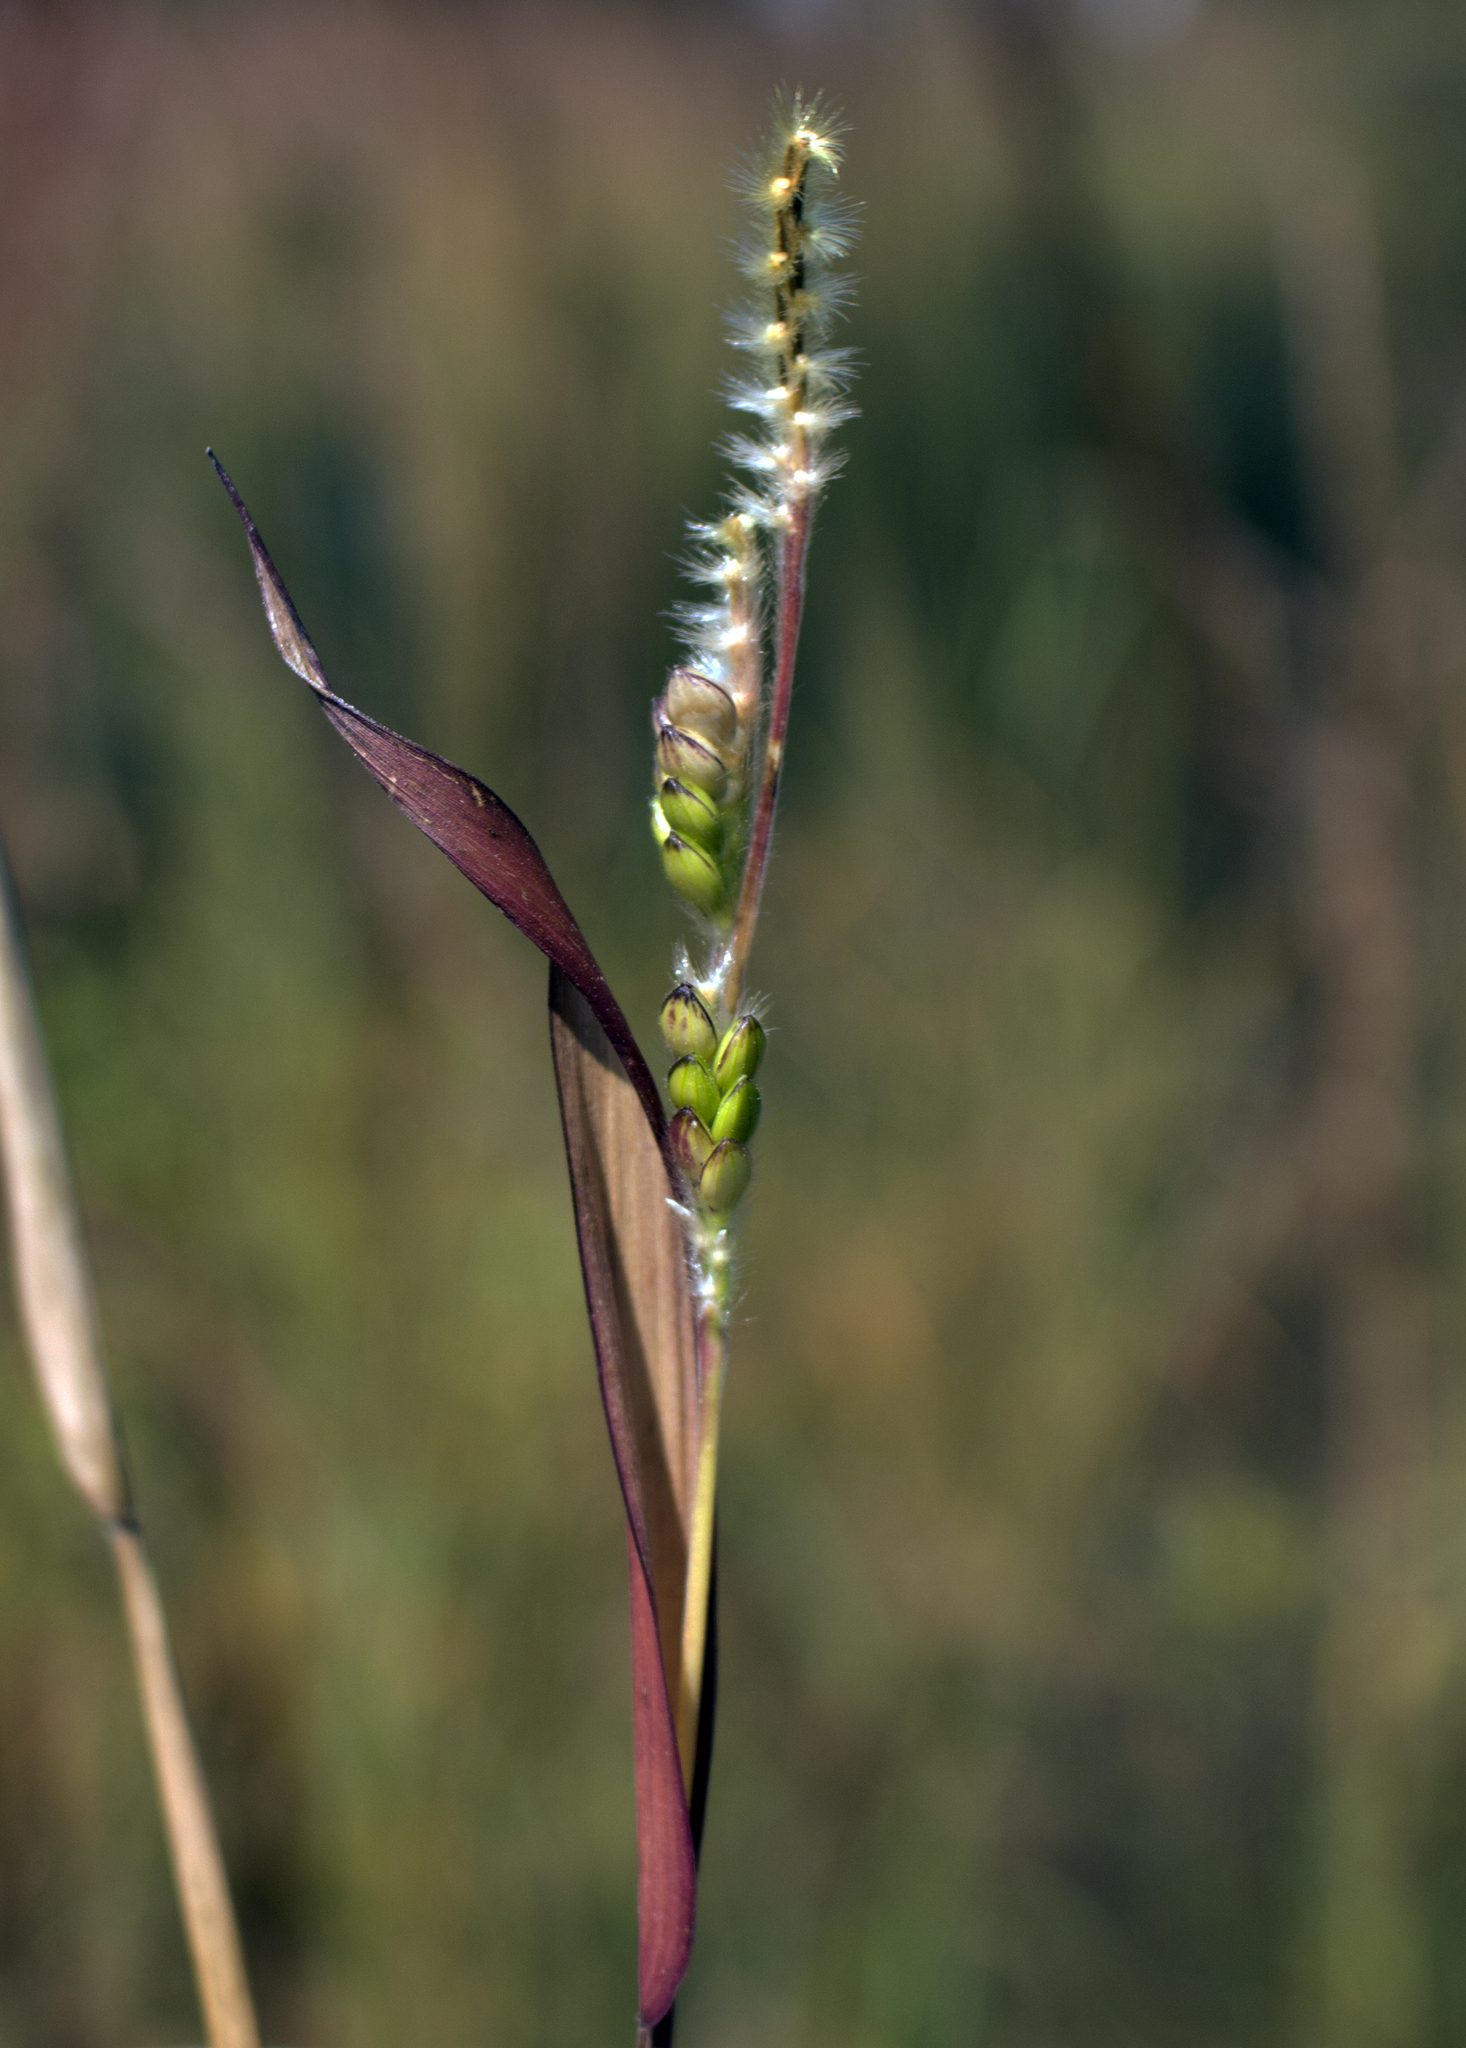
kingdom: Plantae
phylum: Tracheophyta
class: Liliopsida
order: Poales
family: Poaceae
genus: Eriochloa
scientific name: Eriochloa villosa
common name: Hairy cupgrass
